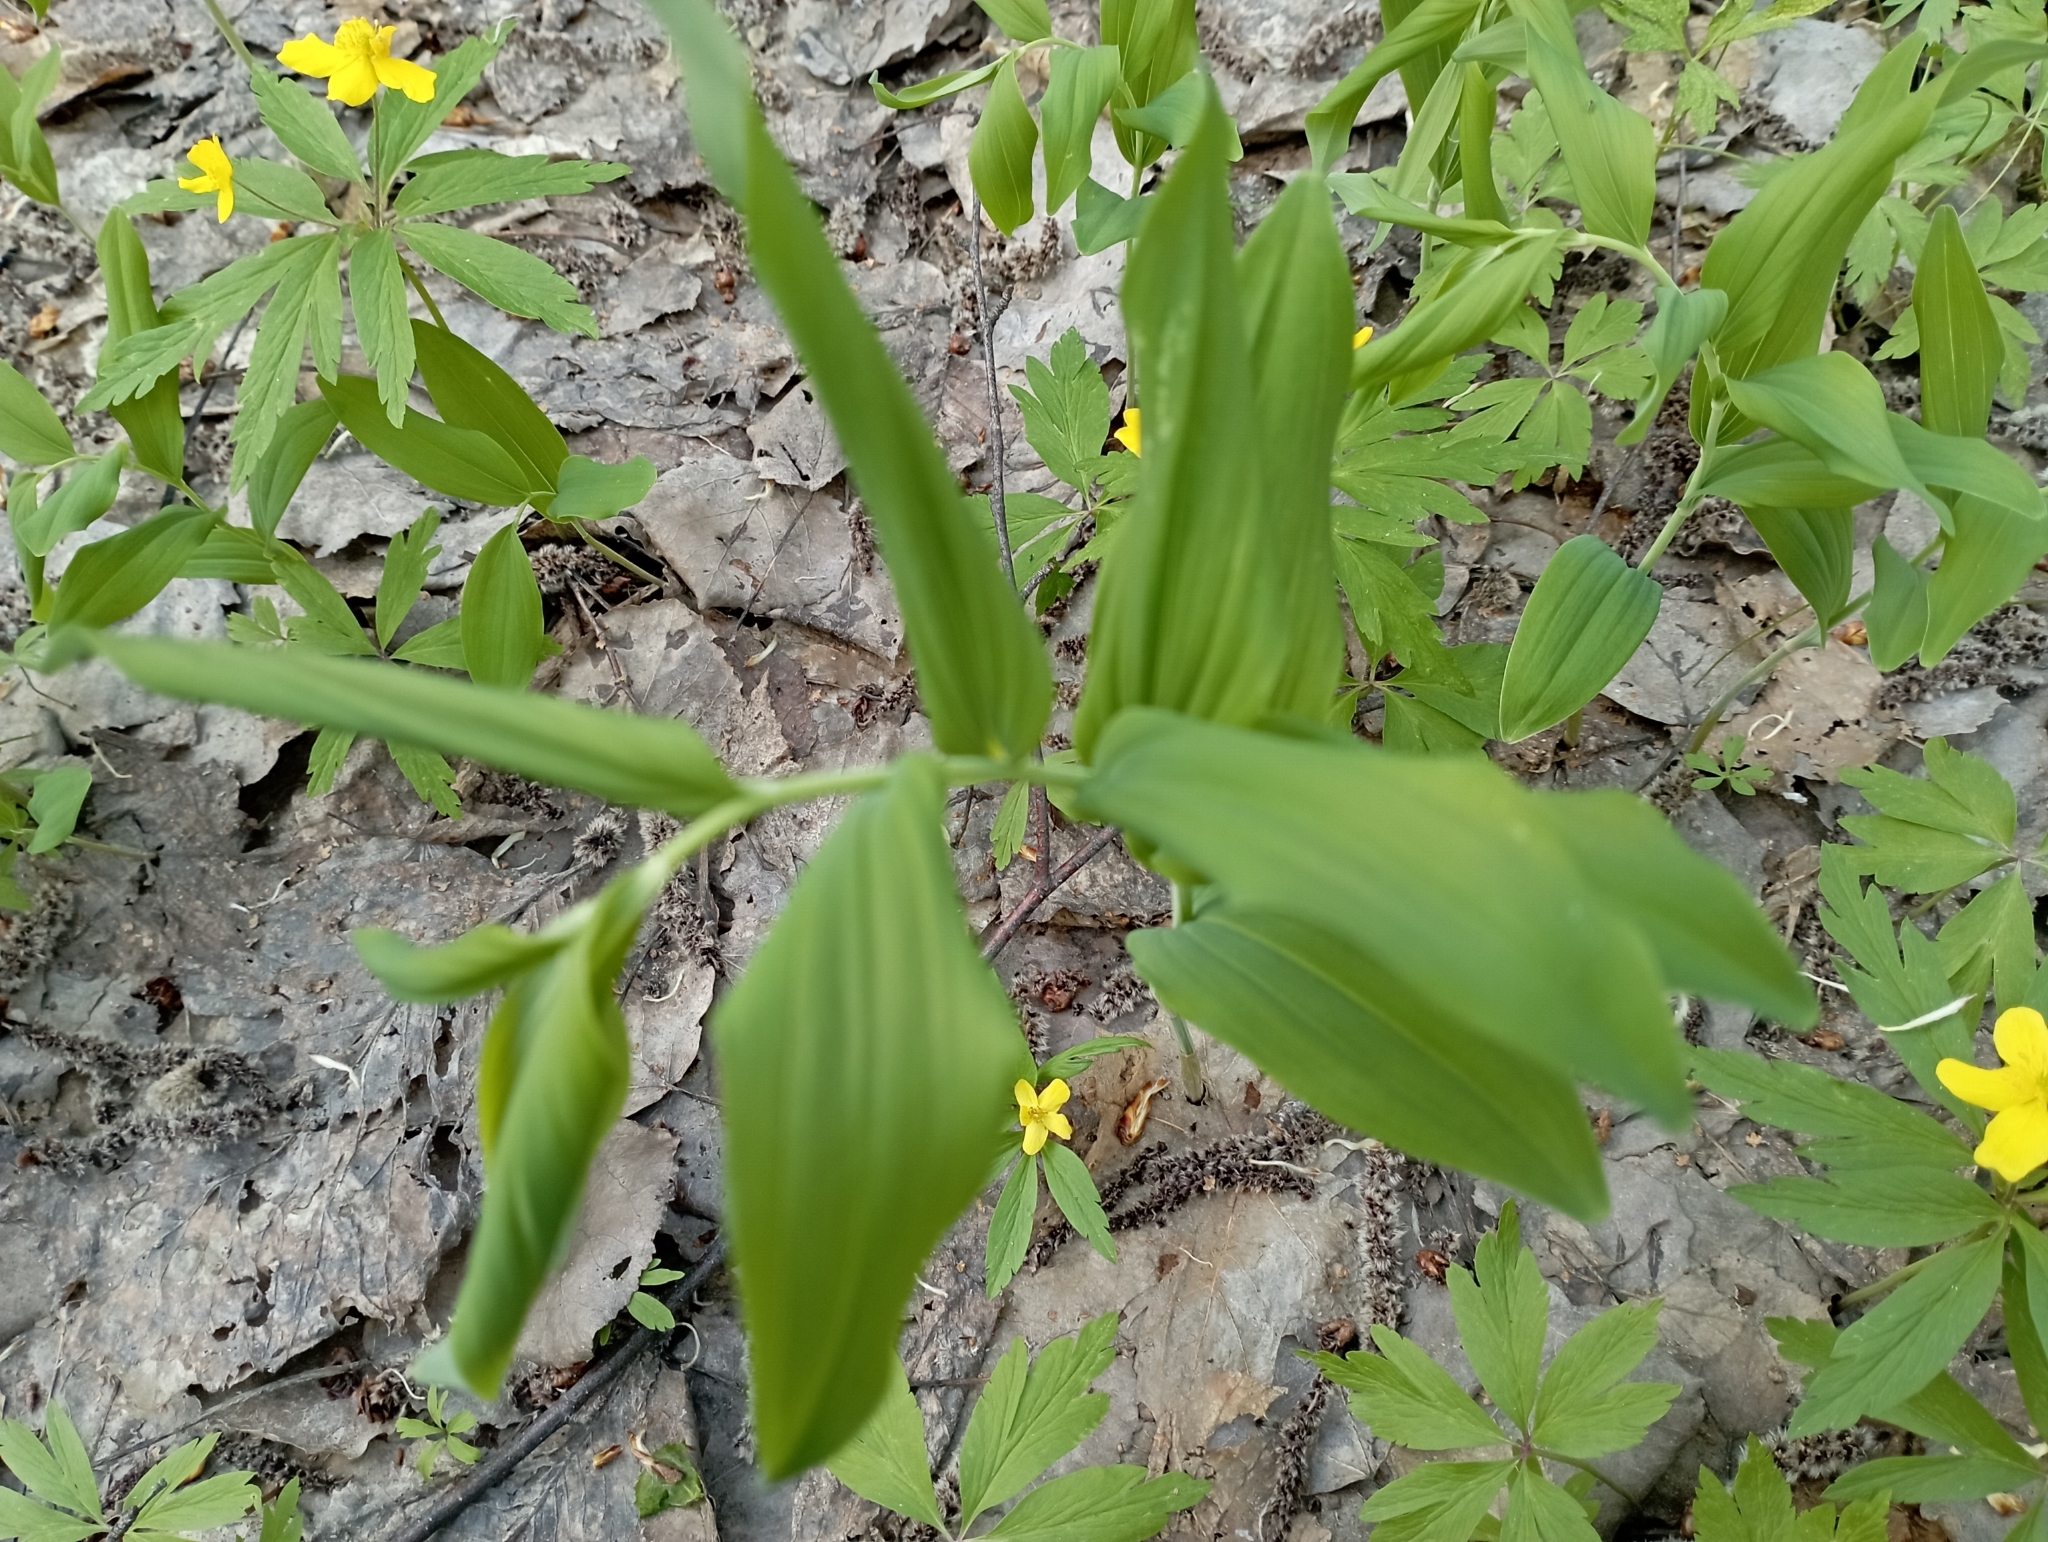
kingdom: Plantae
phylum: Tracheophyta
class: Liliopsida
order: Asparagales
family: Asparagaceae
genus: Polygonatum
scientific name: Polygonatum multiflorum
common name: Solomon's-seal
